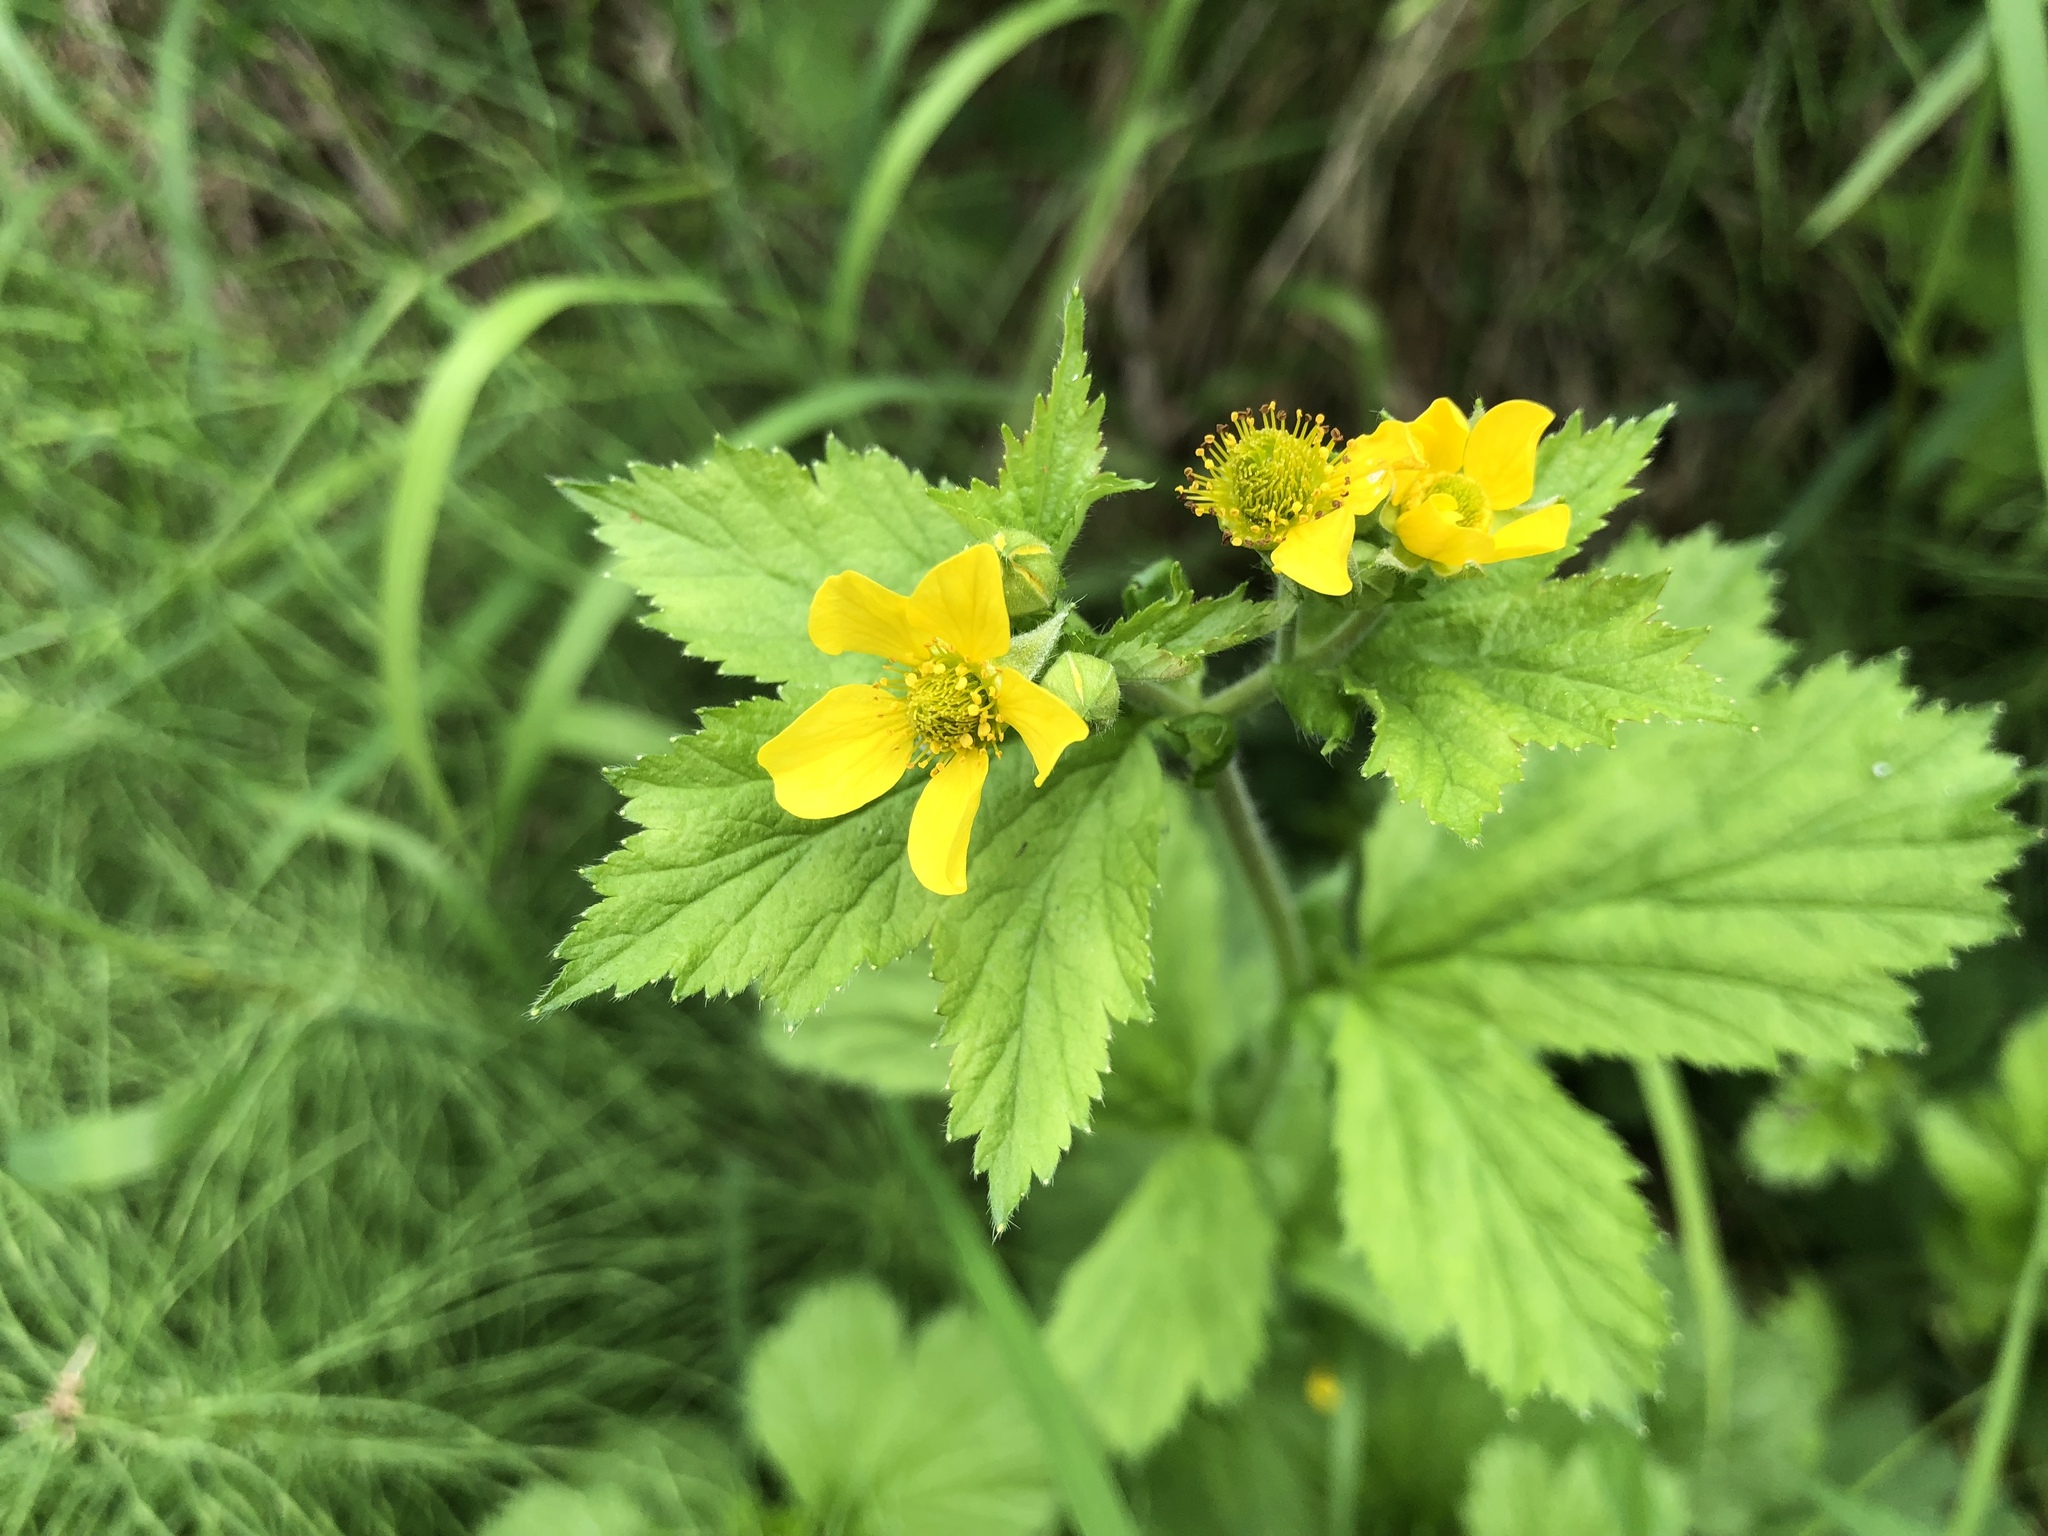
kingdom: Plantae
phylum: Tracheophyta
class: Magnoliopsida
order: Rosales
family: Rosaceae
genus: Geum
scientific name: Geum macrophyllum
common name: Large-leaved avens
